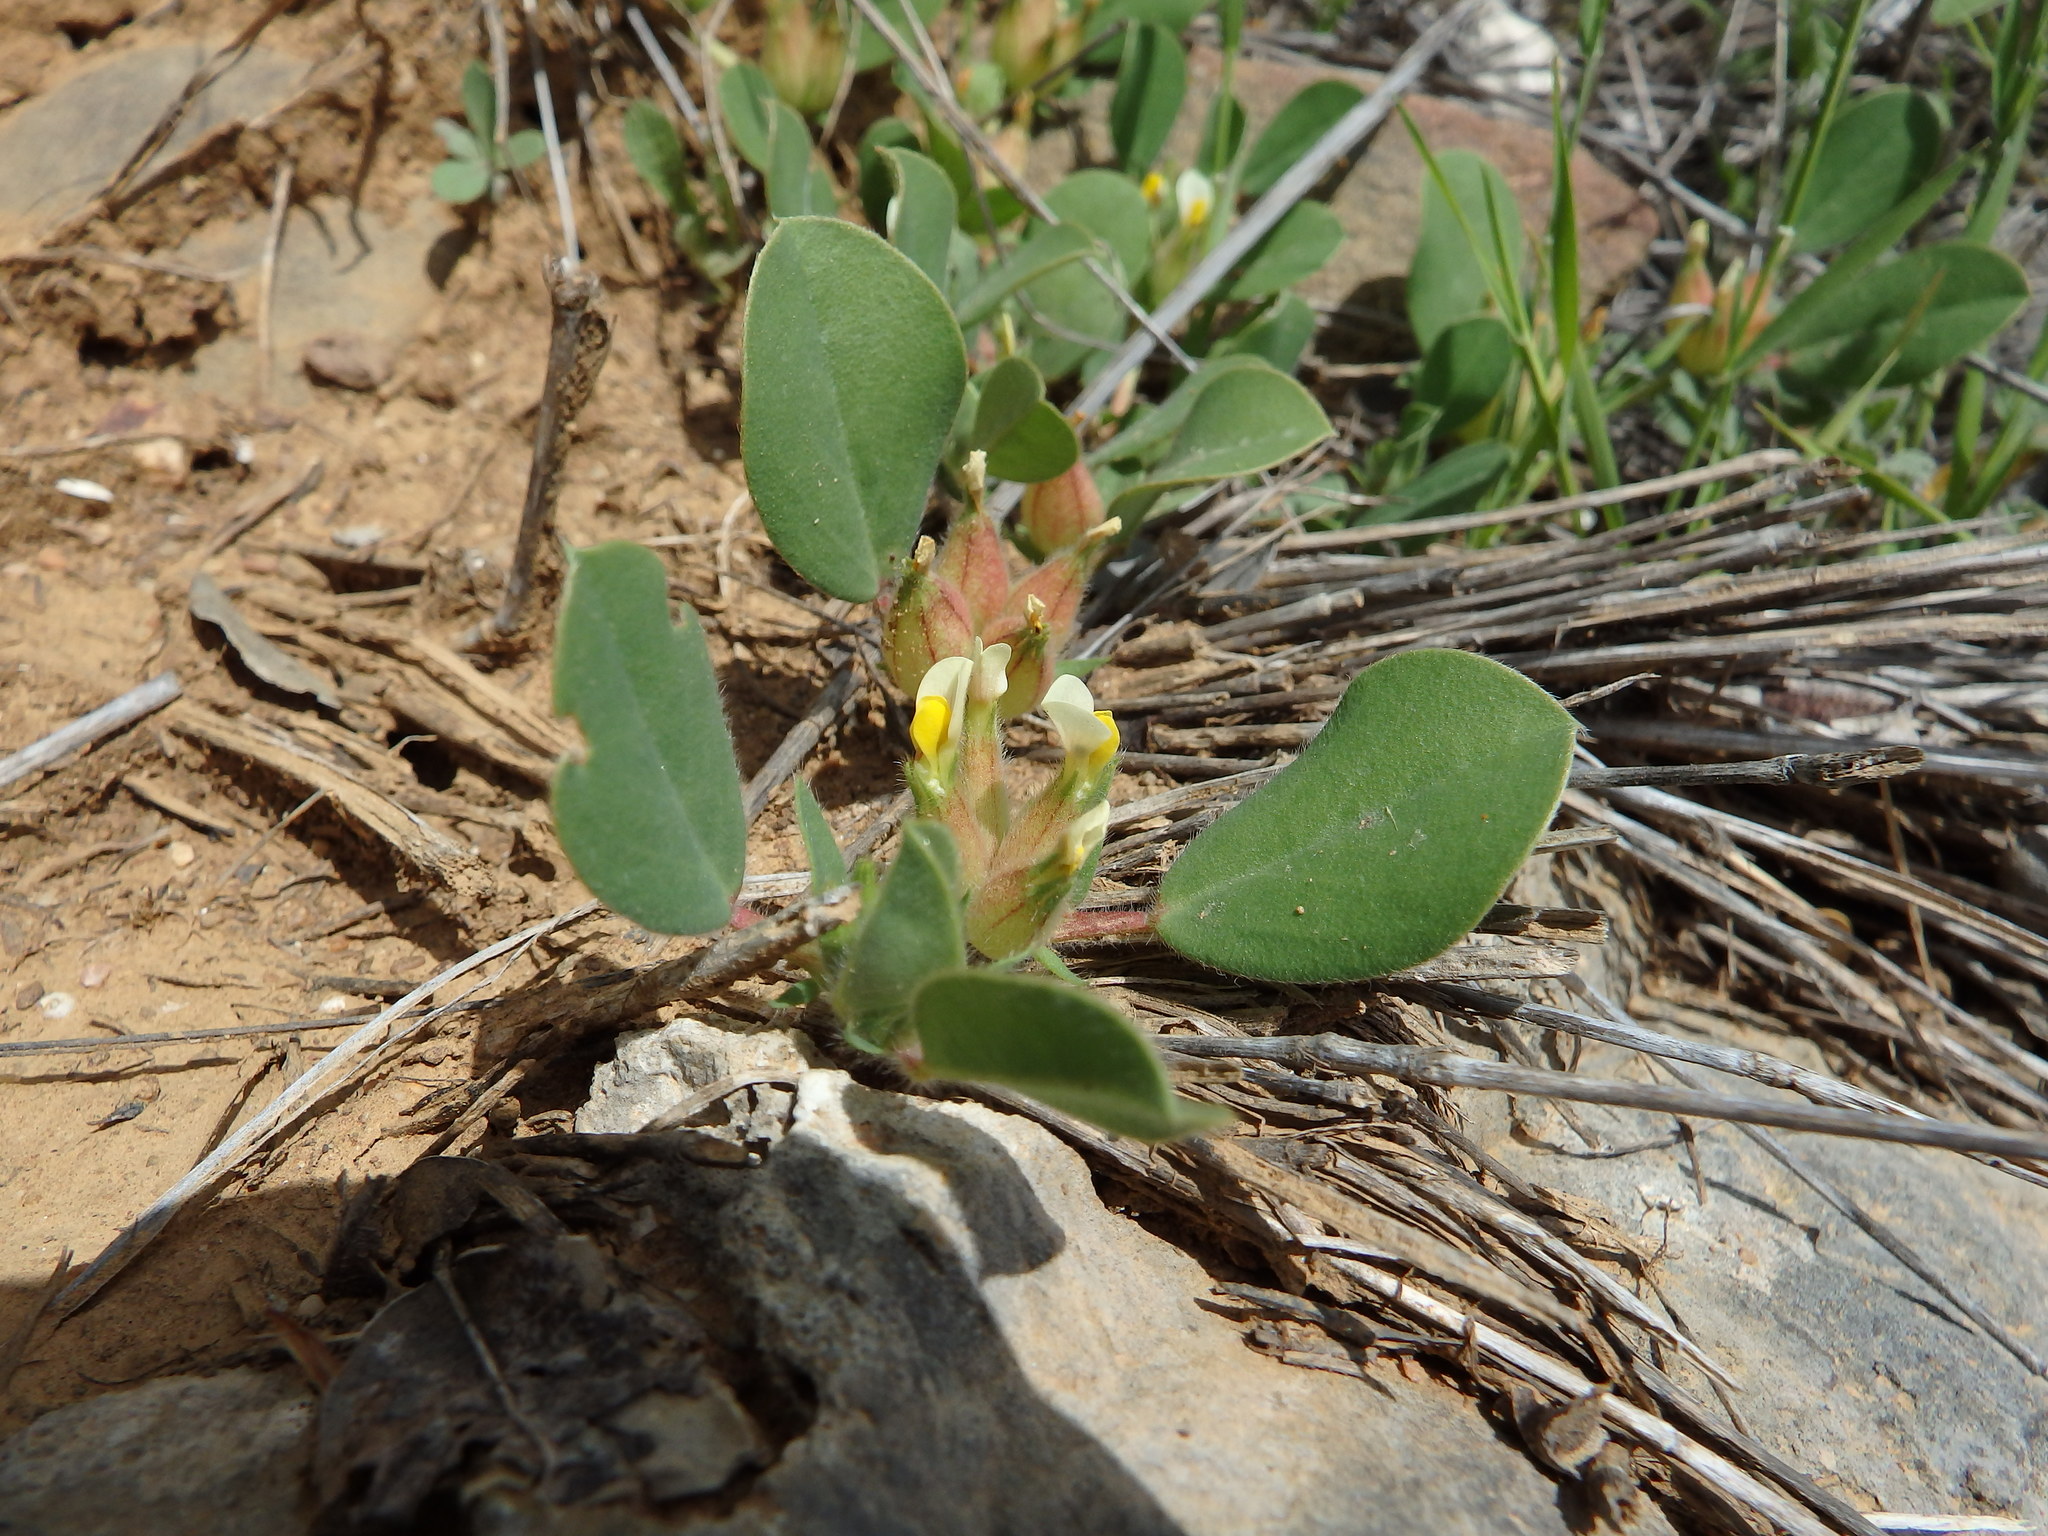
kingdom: Plantae
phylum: Tracheophyta
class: Magnoliopsida
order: Fabales
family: Fabaceae
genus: Tripodion
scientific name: Tripodion tetraphyllum
